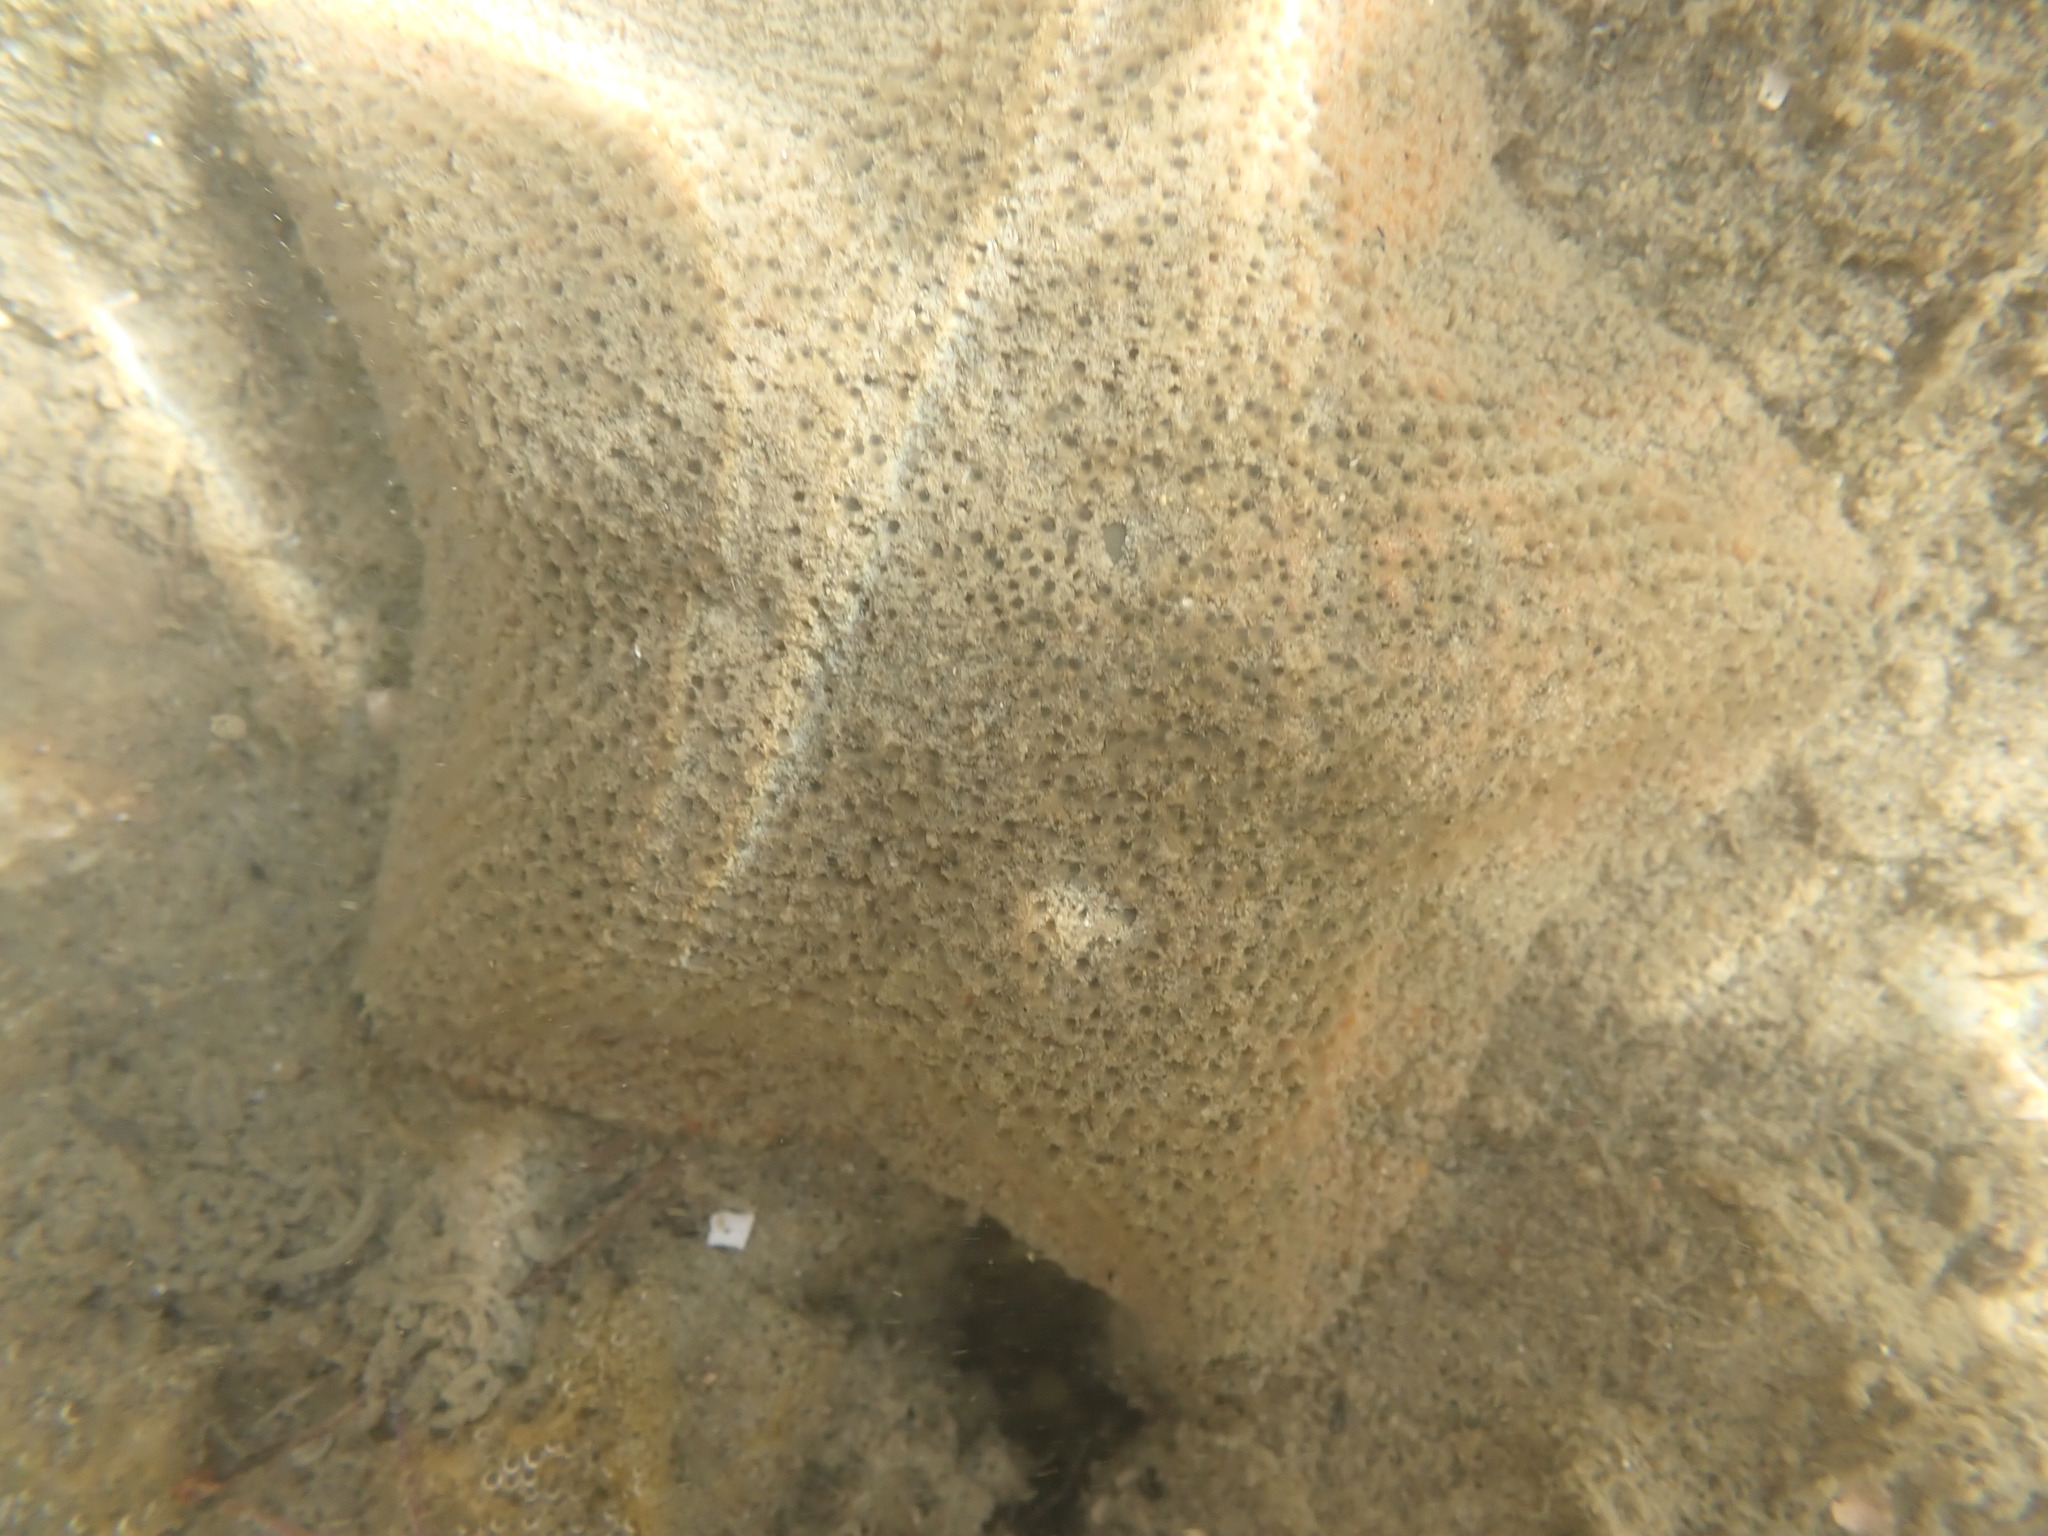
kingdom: Animalia
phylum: Echinodermata
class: Asteroidea
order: Valvatida
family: Asterinidae
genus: Patiriella
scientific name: Patiriella regularis
